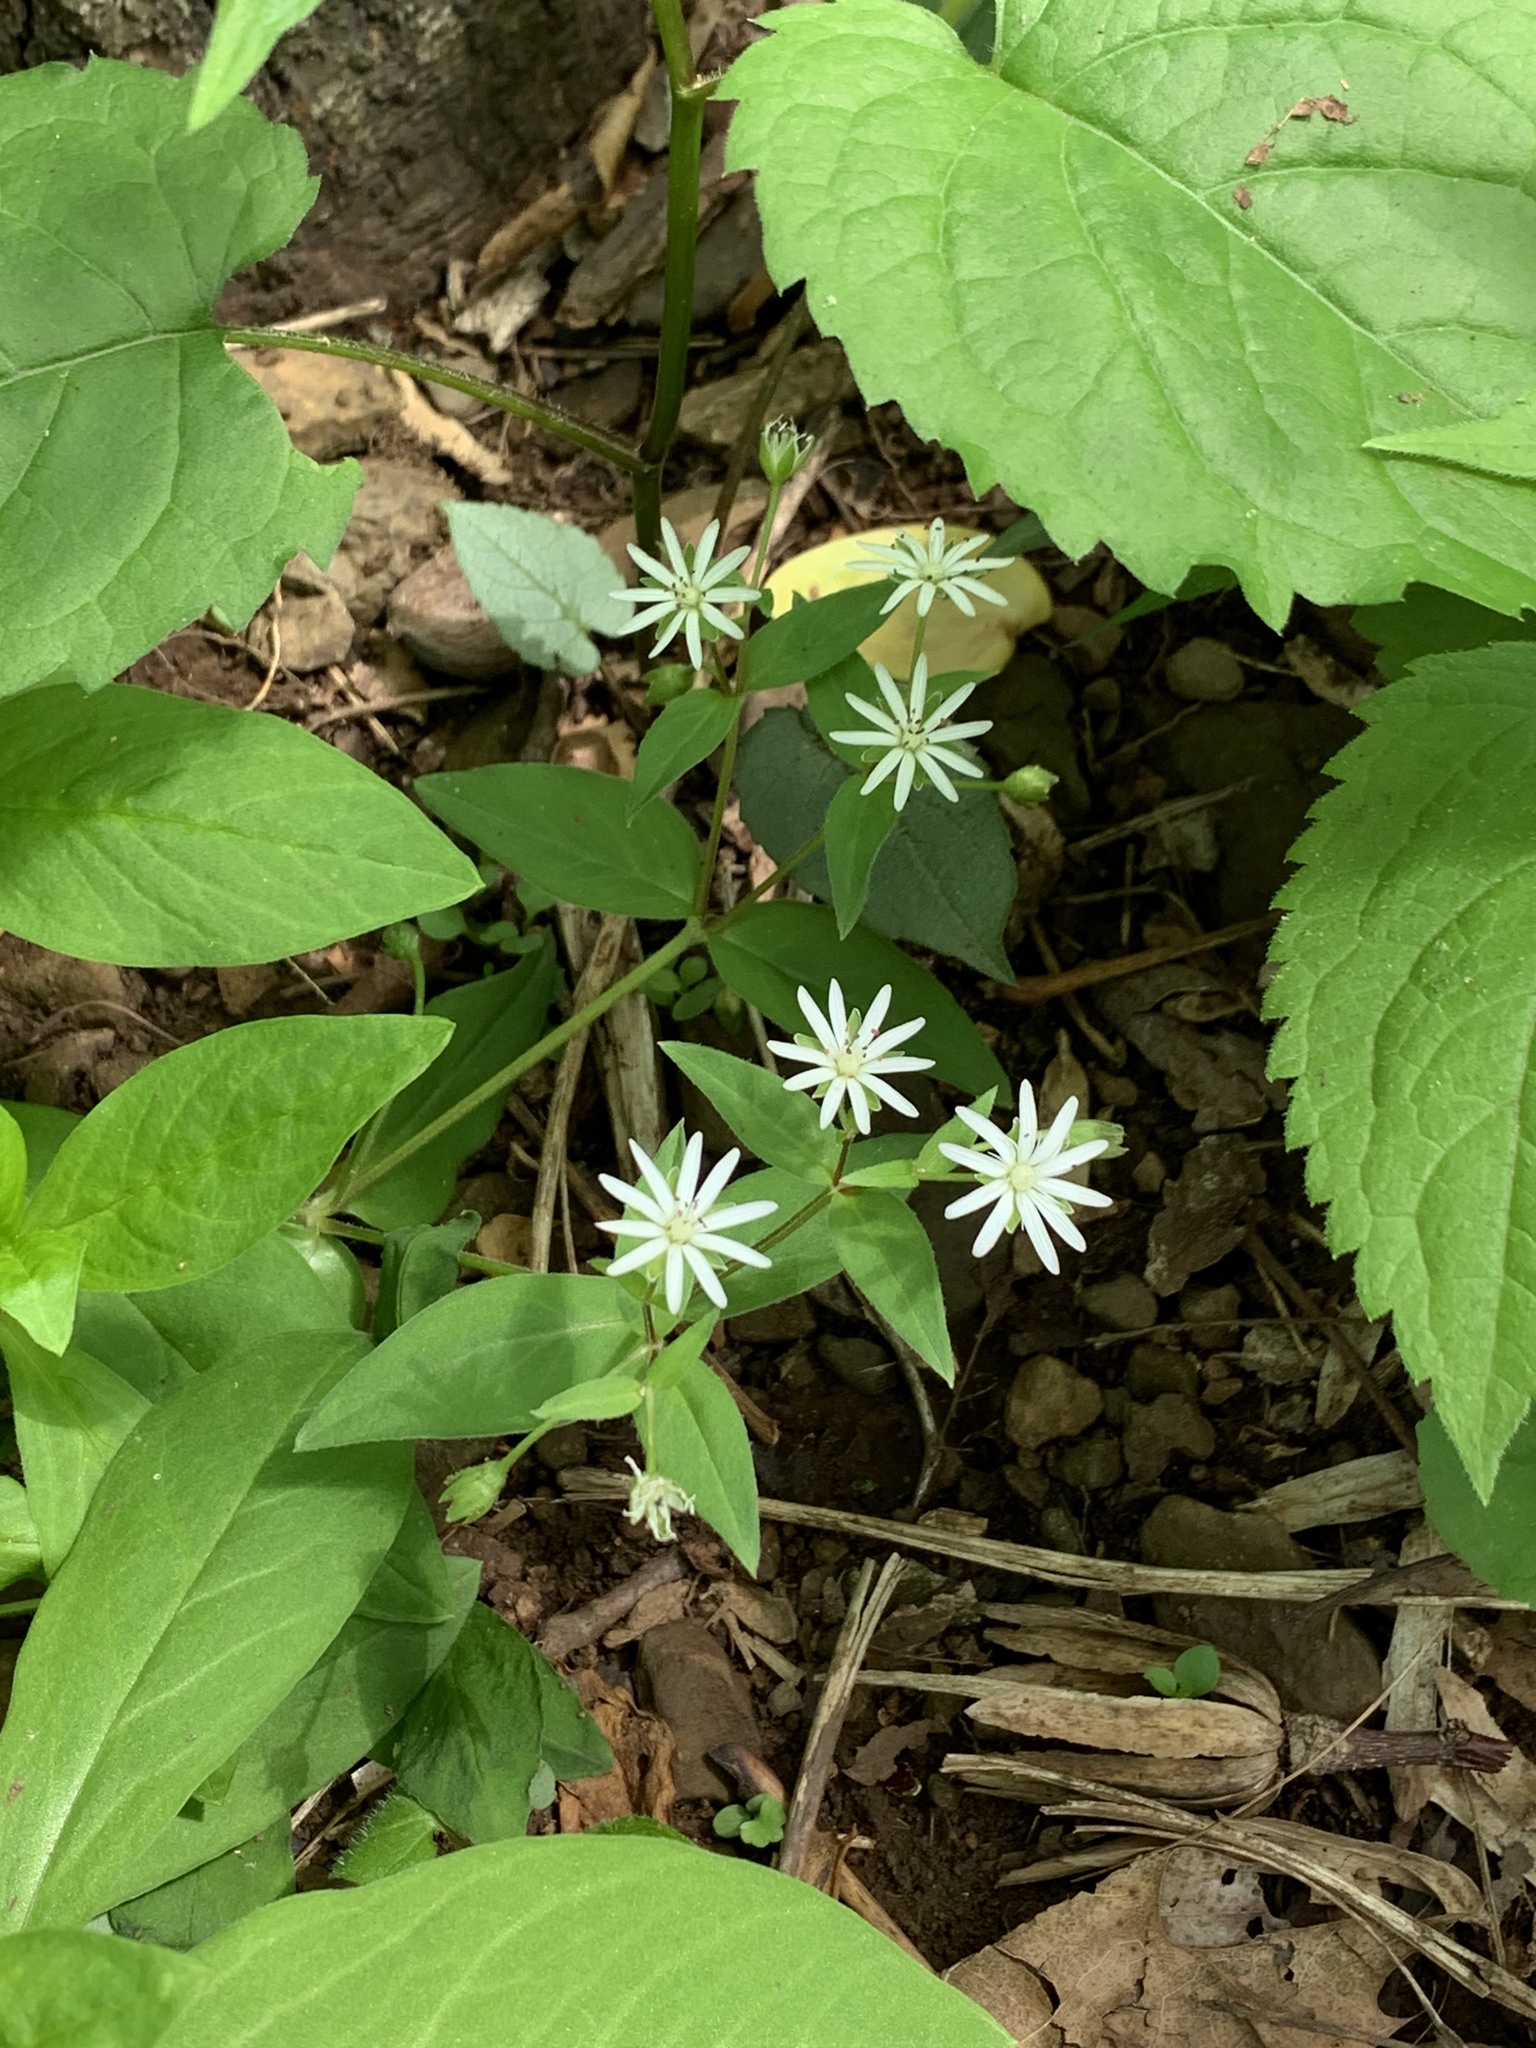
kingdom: Plantae
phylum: Tracheophyta
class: Magnoliopsida
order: Caryophyllales
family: Caryophyllaceae
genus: Stellaria
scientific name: Stellaria pubera
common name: Star chickweed
